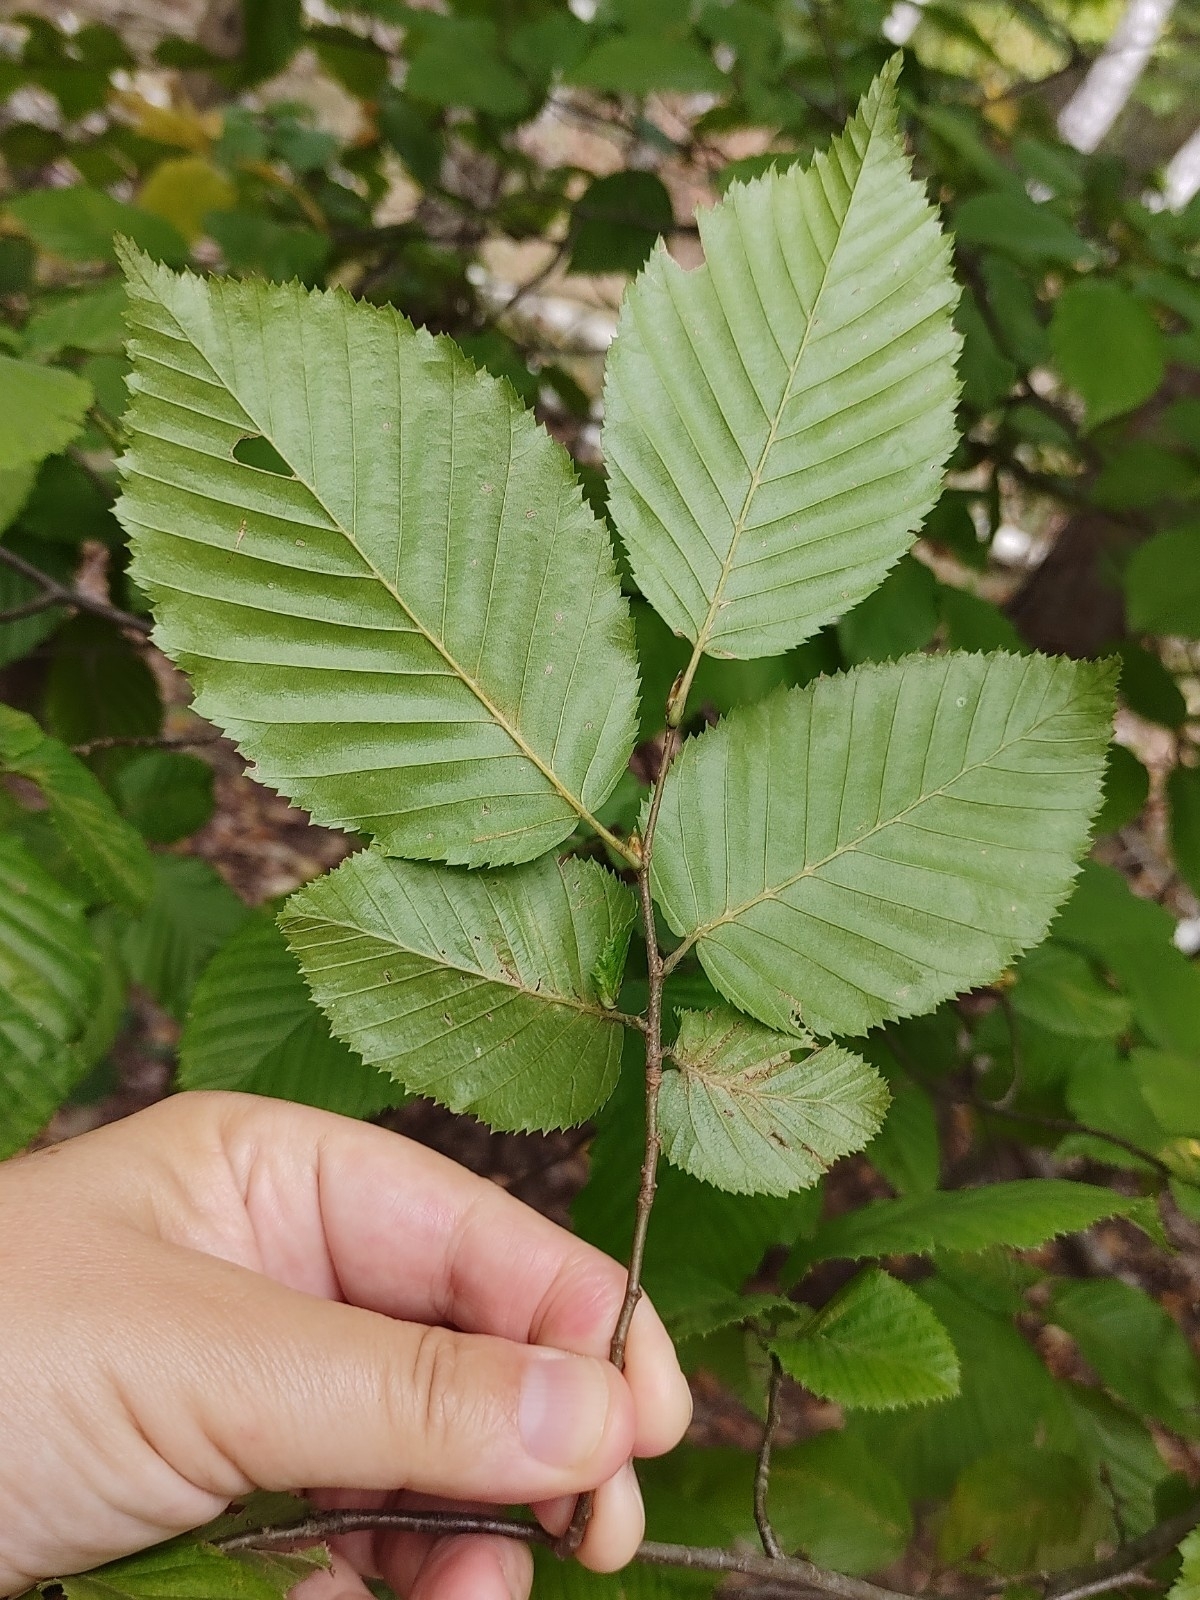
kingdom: Plantae
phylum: Tracheophyta
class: Magnoliopsida
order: Fagales
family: Betulaceae
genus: Carpinus
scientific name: Carpinus betulus
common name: Hornbeam
